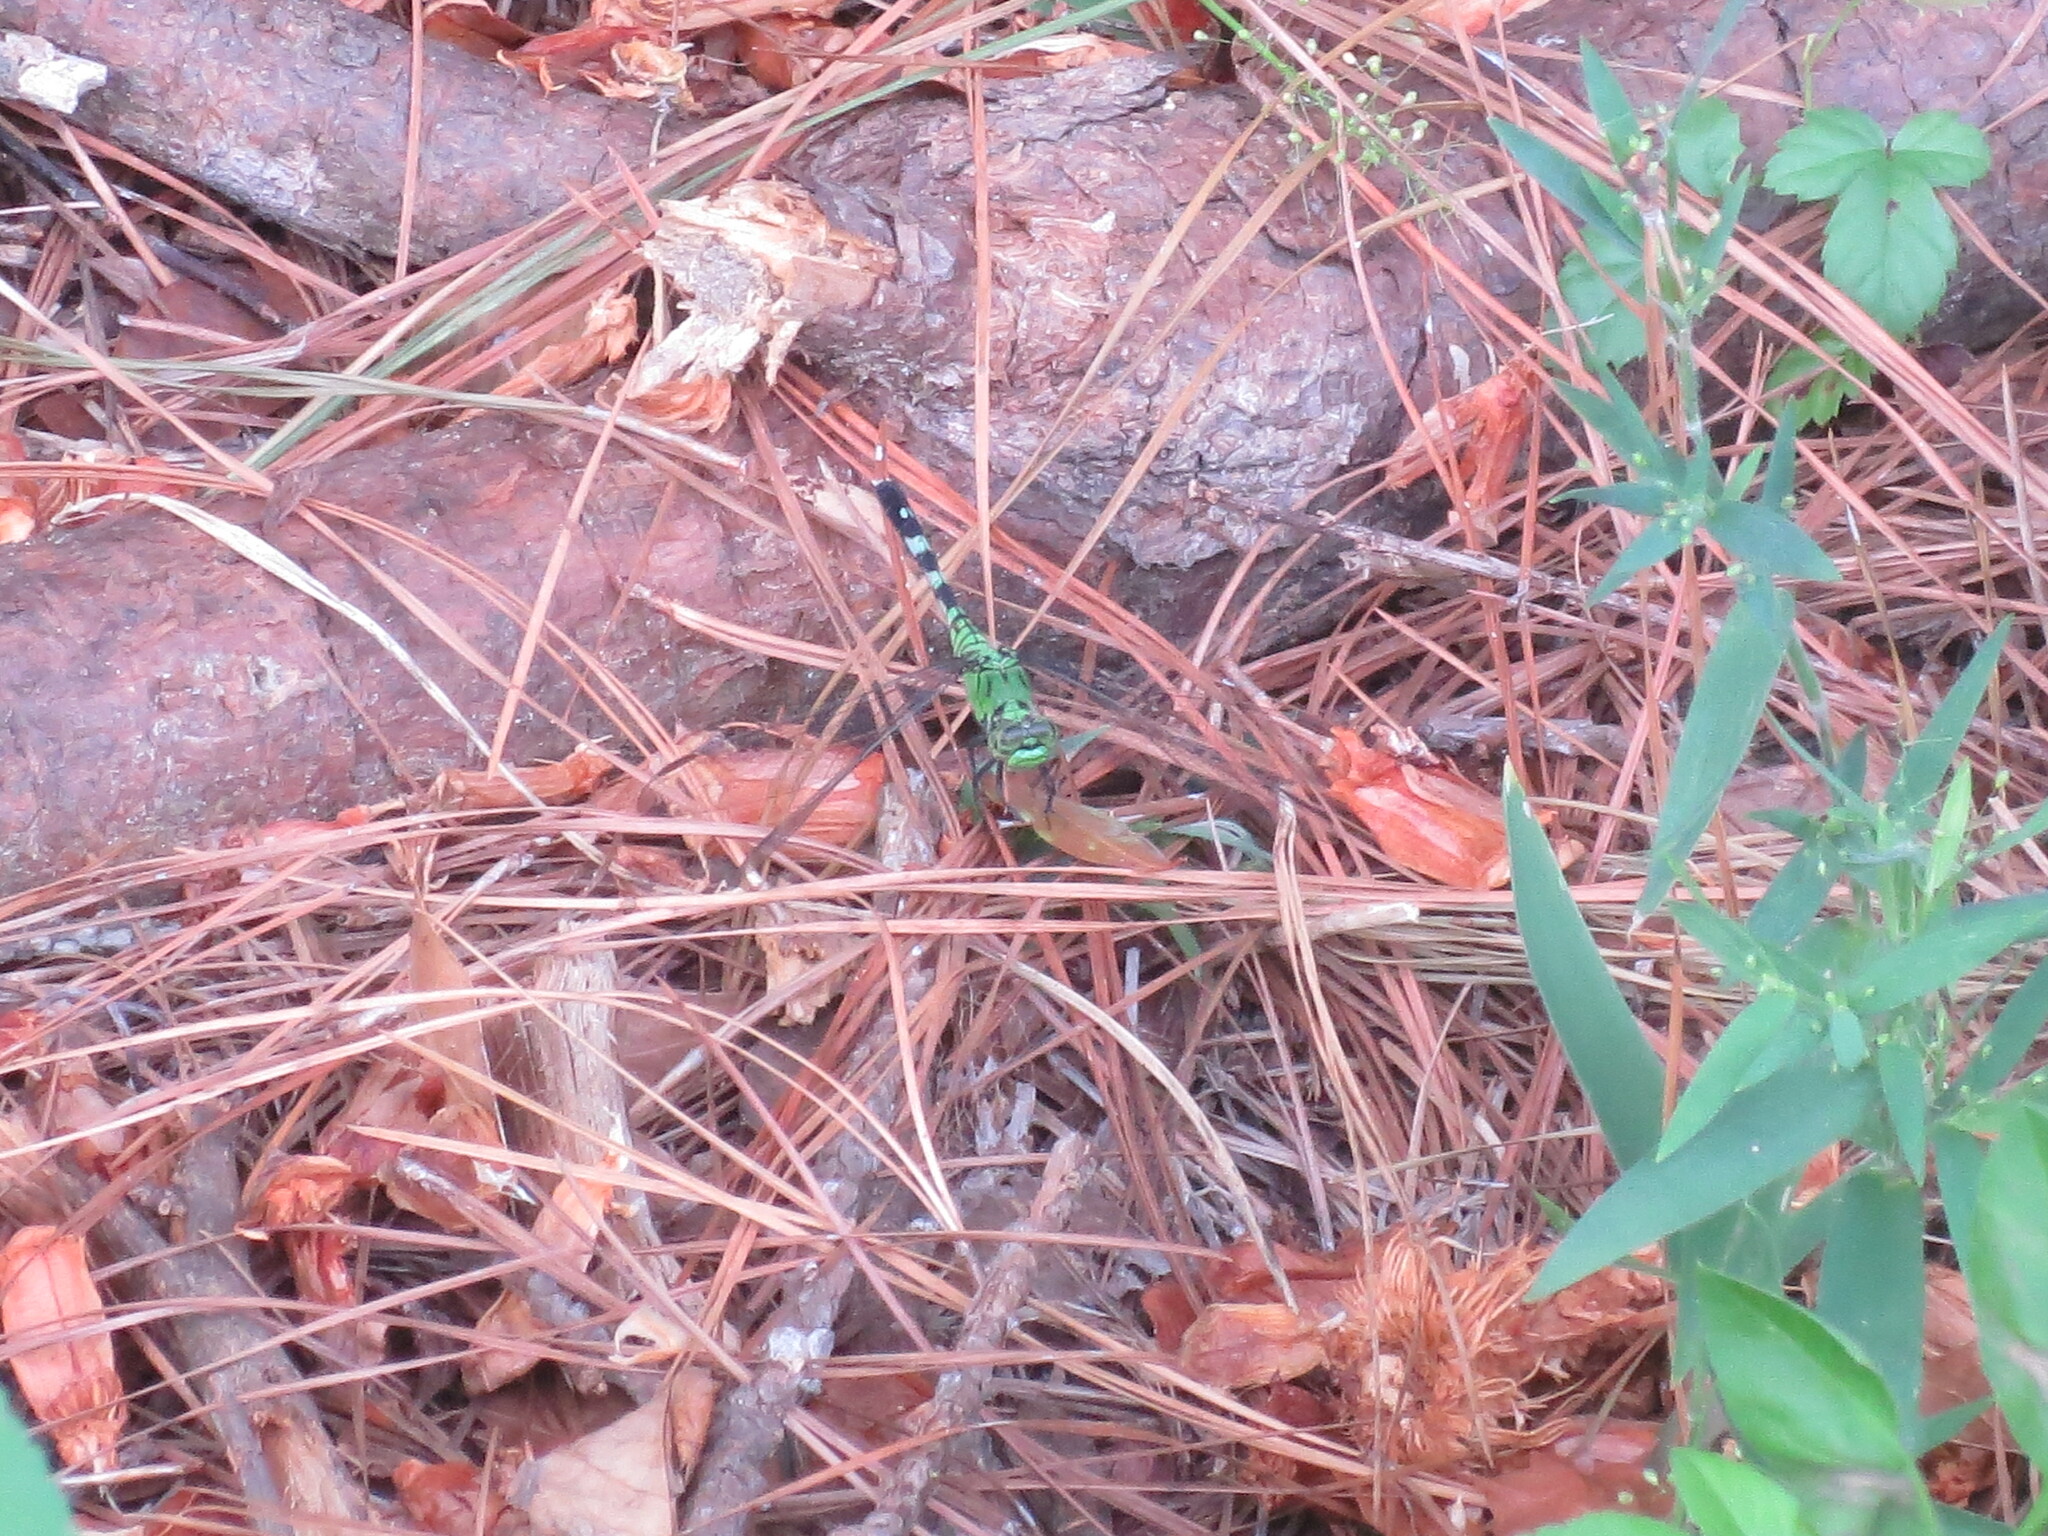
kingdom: Animalia
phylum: Arthropoda
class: Insecta
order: Odonata
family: Libellulidae
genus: Erythemis
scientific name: Erythemis simplicicollis
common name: Eastern pondhawk
